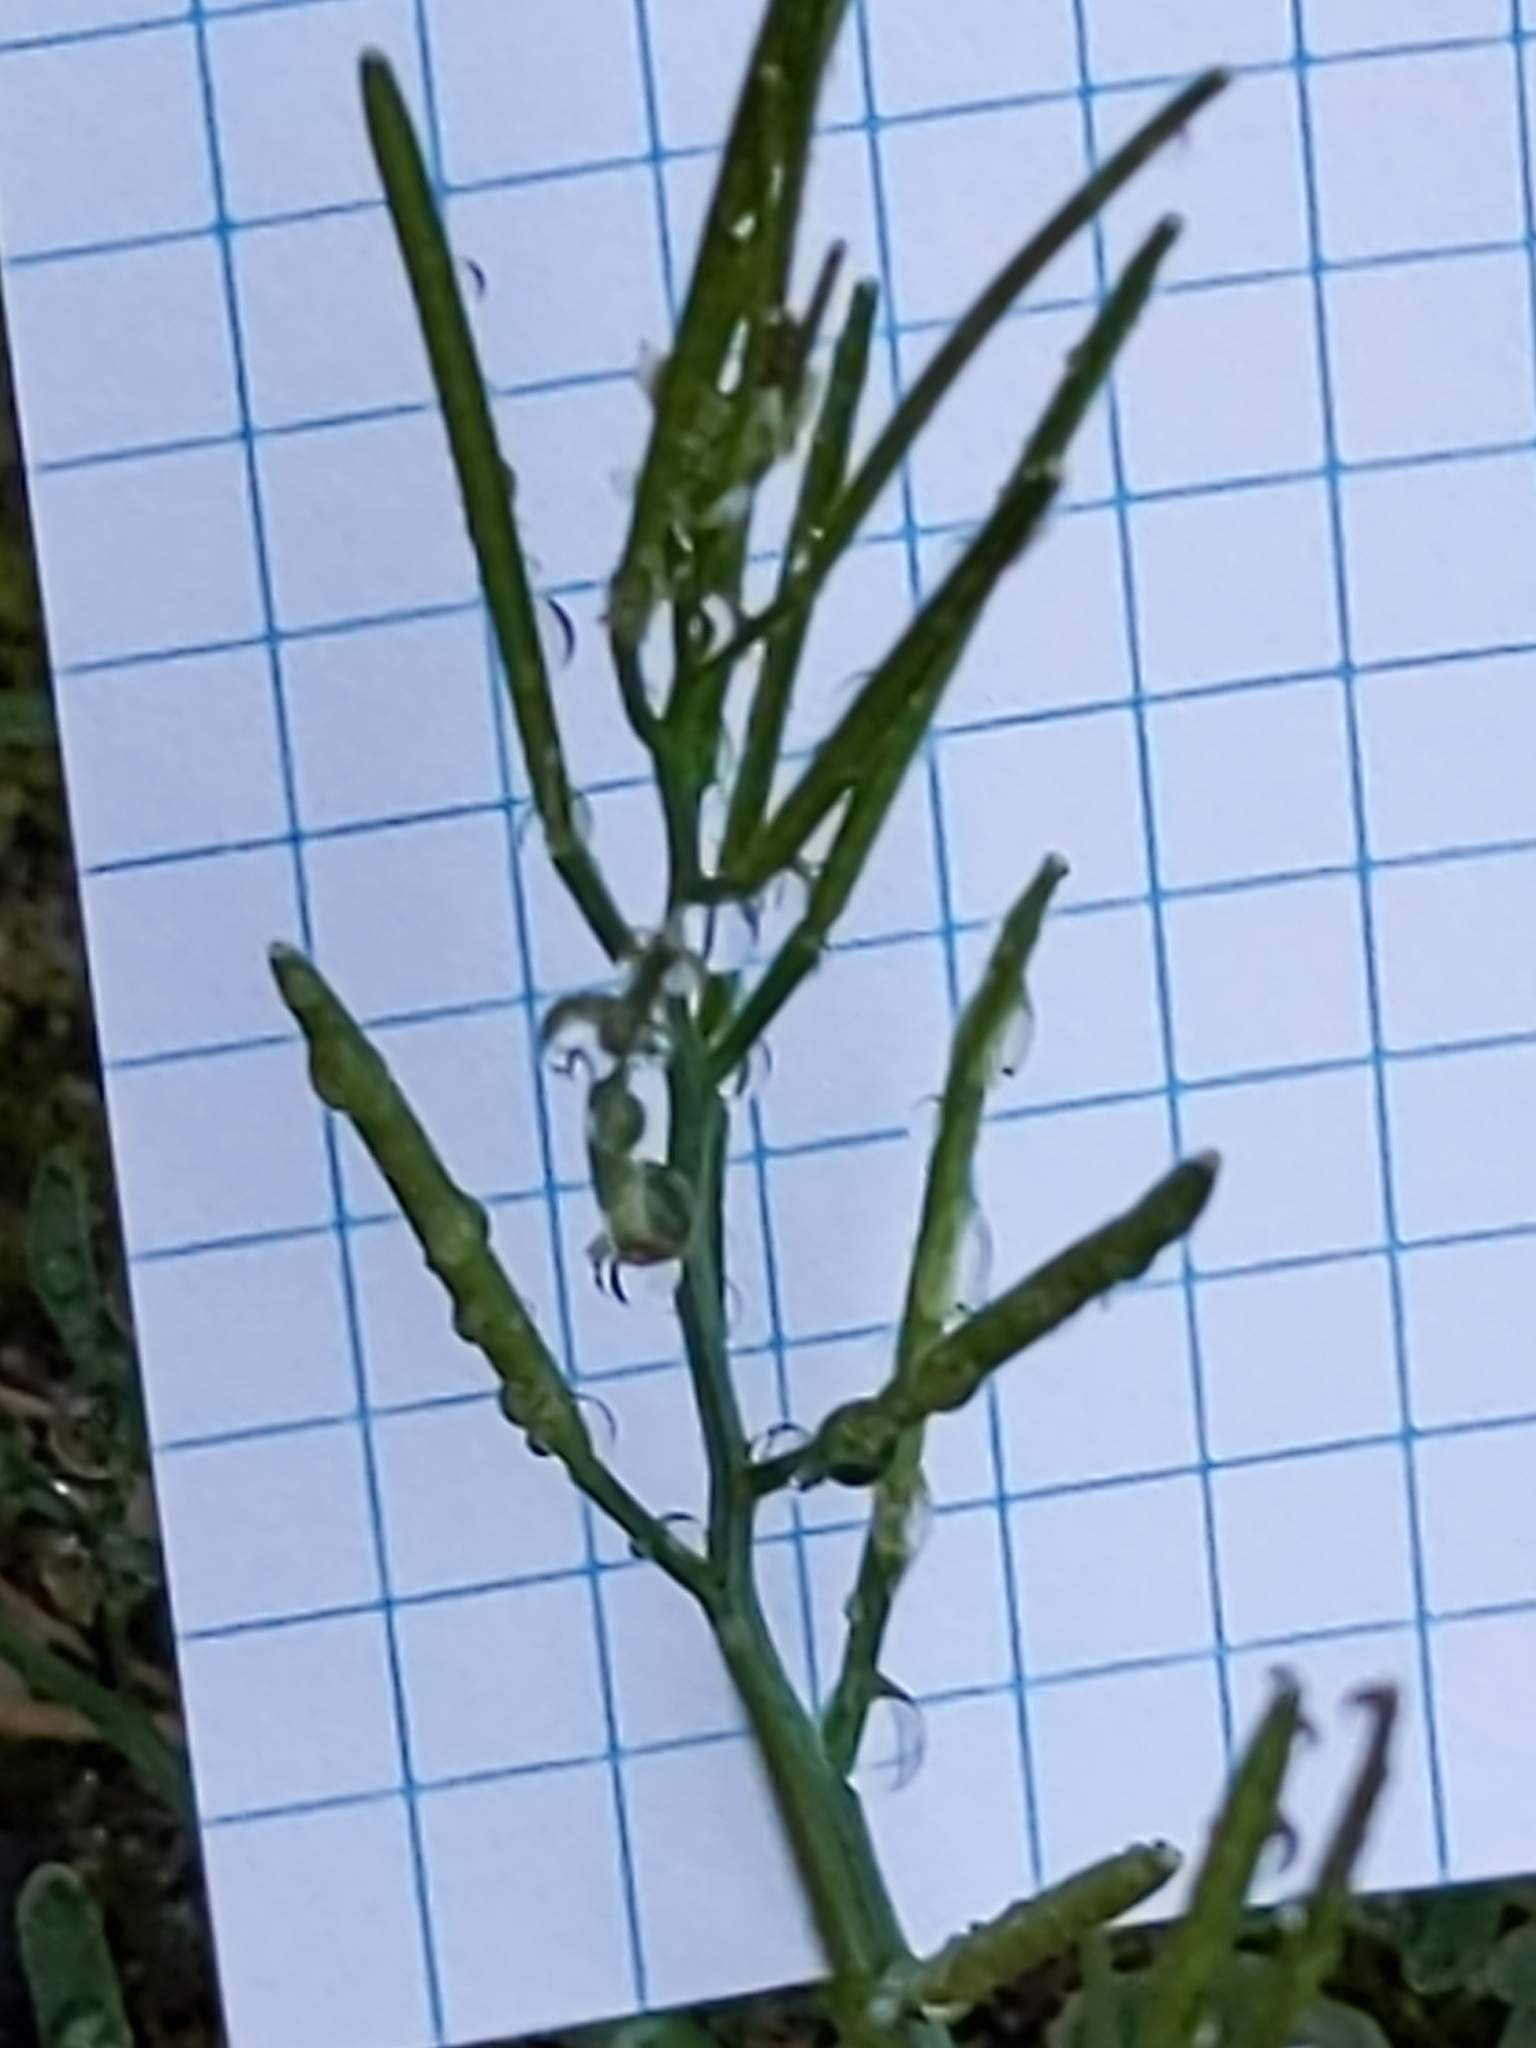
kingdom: Plantae
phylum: Tracheophyta
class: Magnoliopsida
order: Brassicales
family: Brassicaceae
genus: Cardamine
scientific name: Cardamine hirsuta
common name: Hairy bittercress
